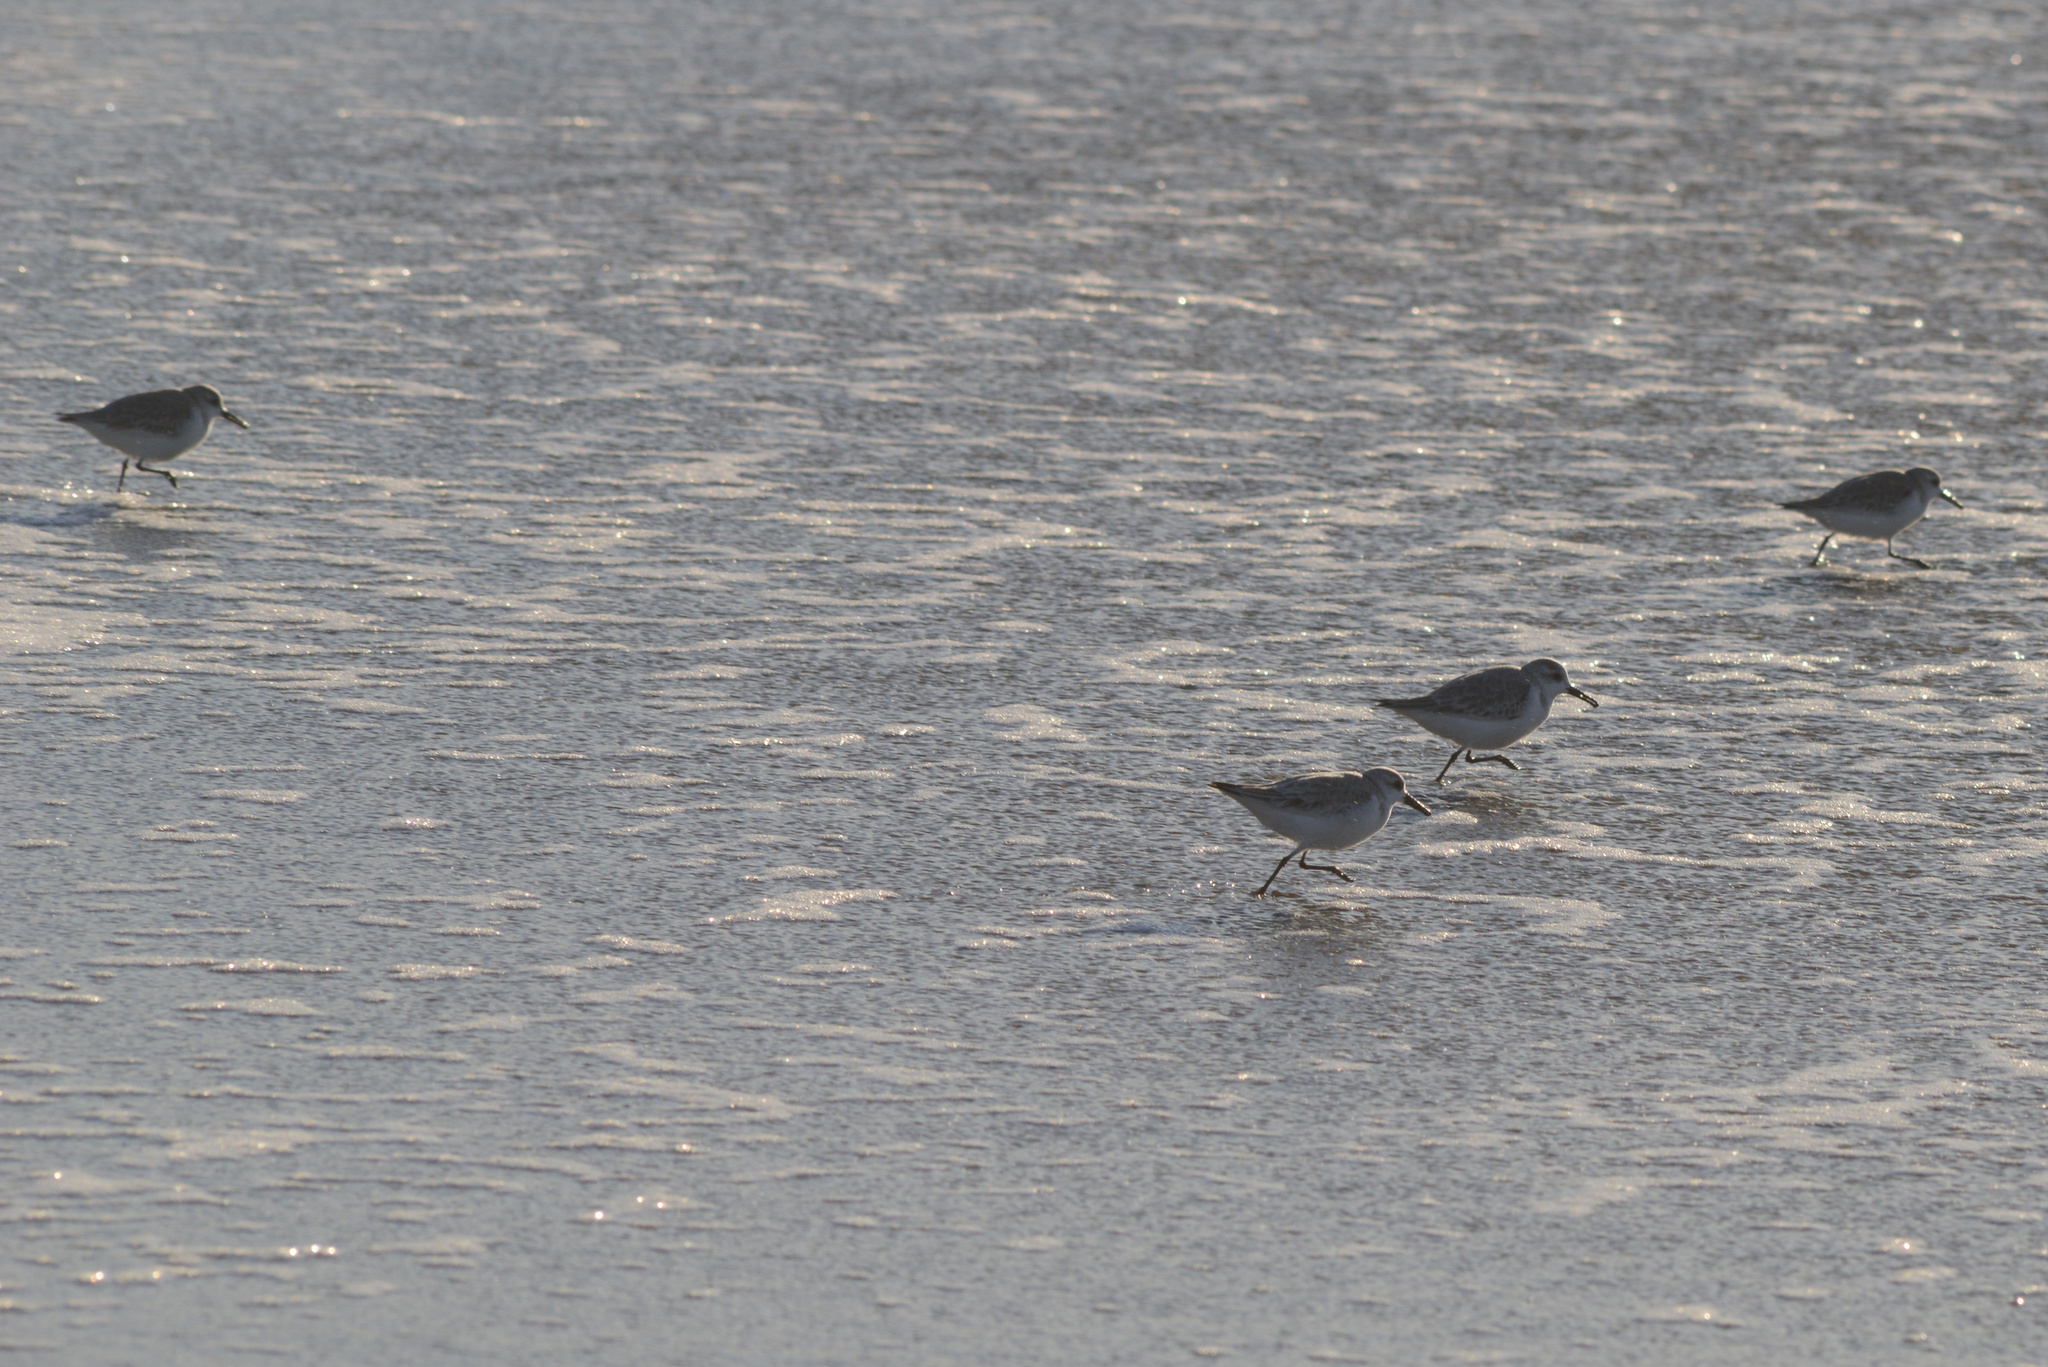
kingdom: Animalia
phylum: Chordata
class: Aves
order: Charadriiformes
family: Scolopacidae
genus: Calidris
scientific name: Calidris alba
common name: Sanderling
